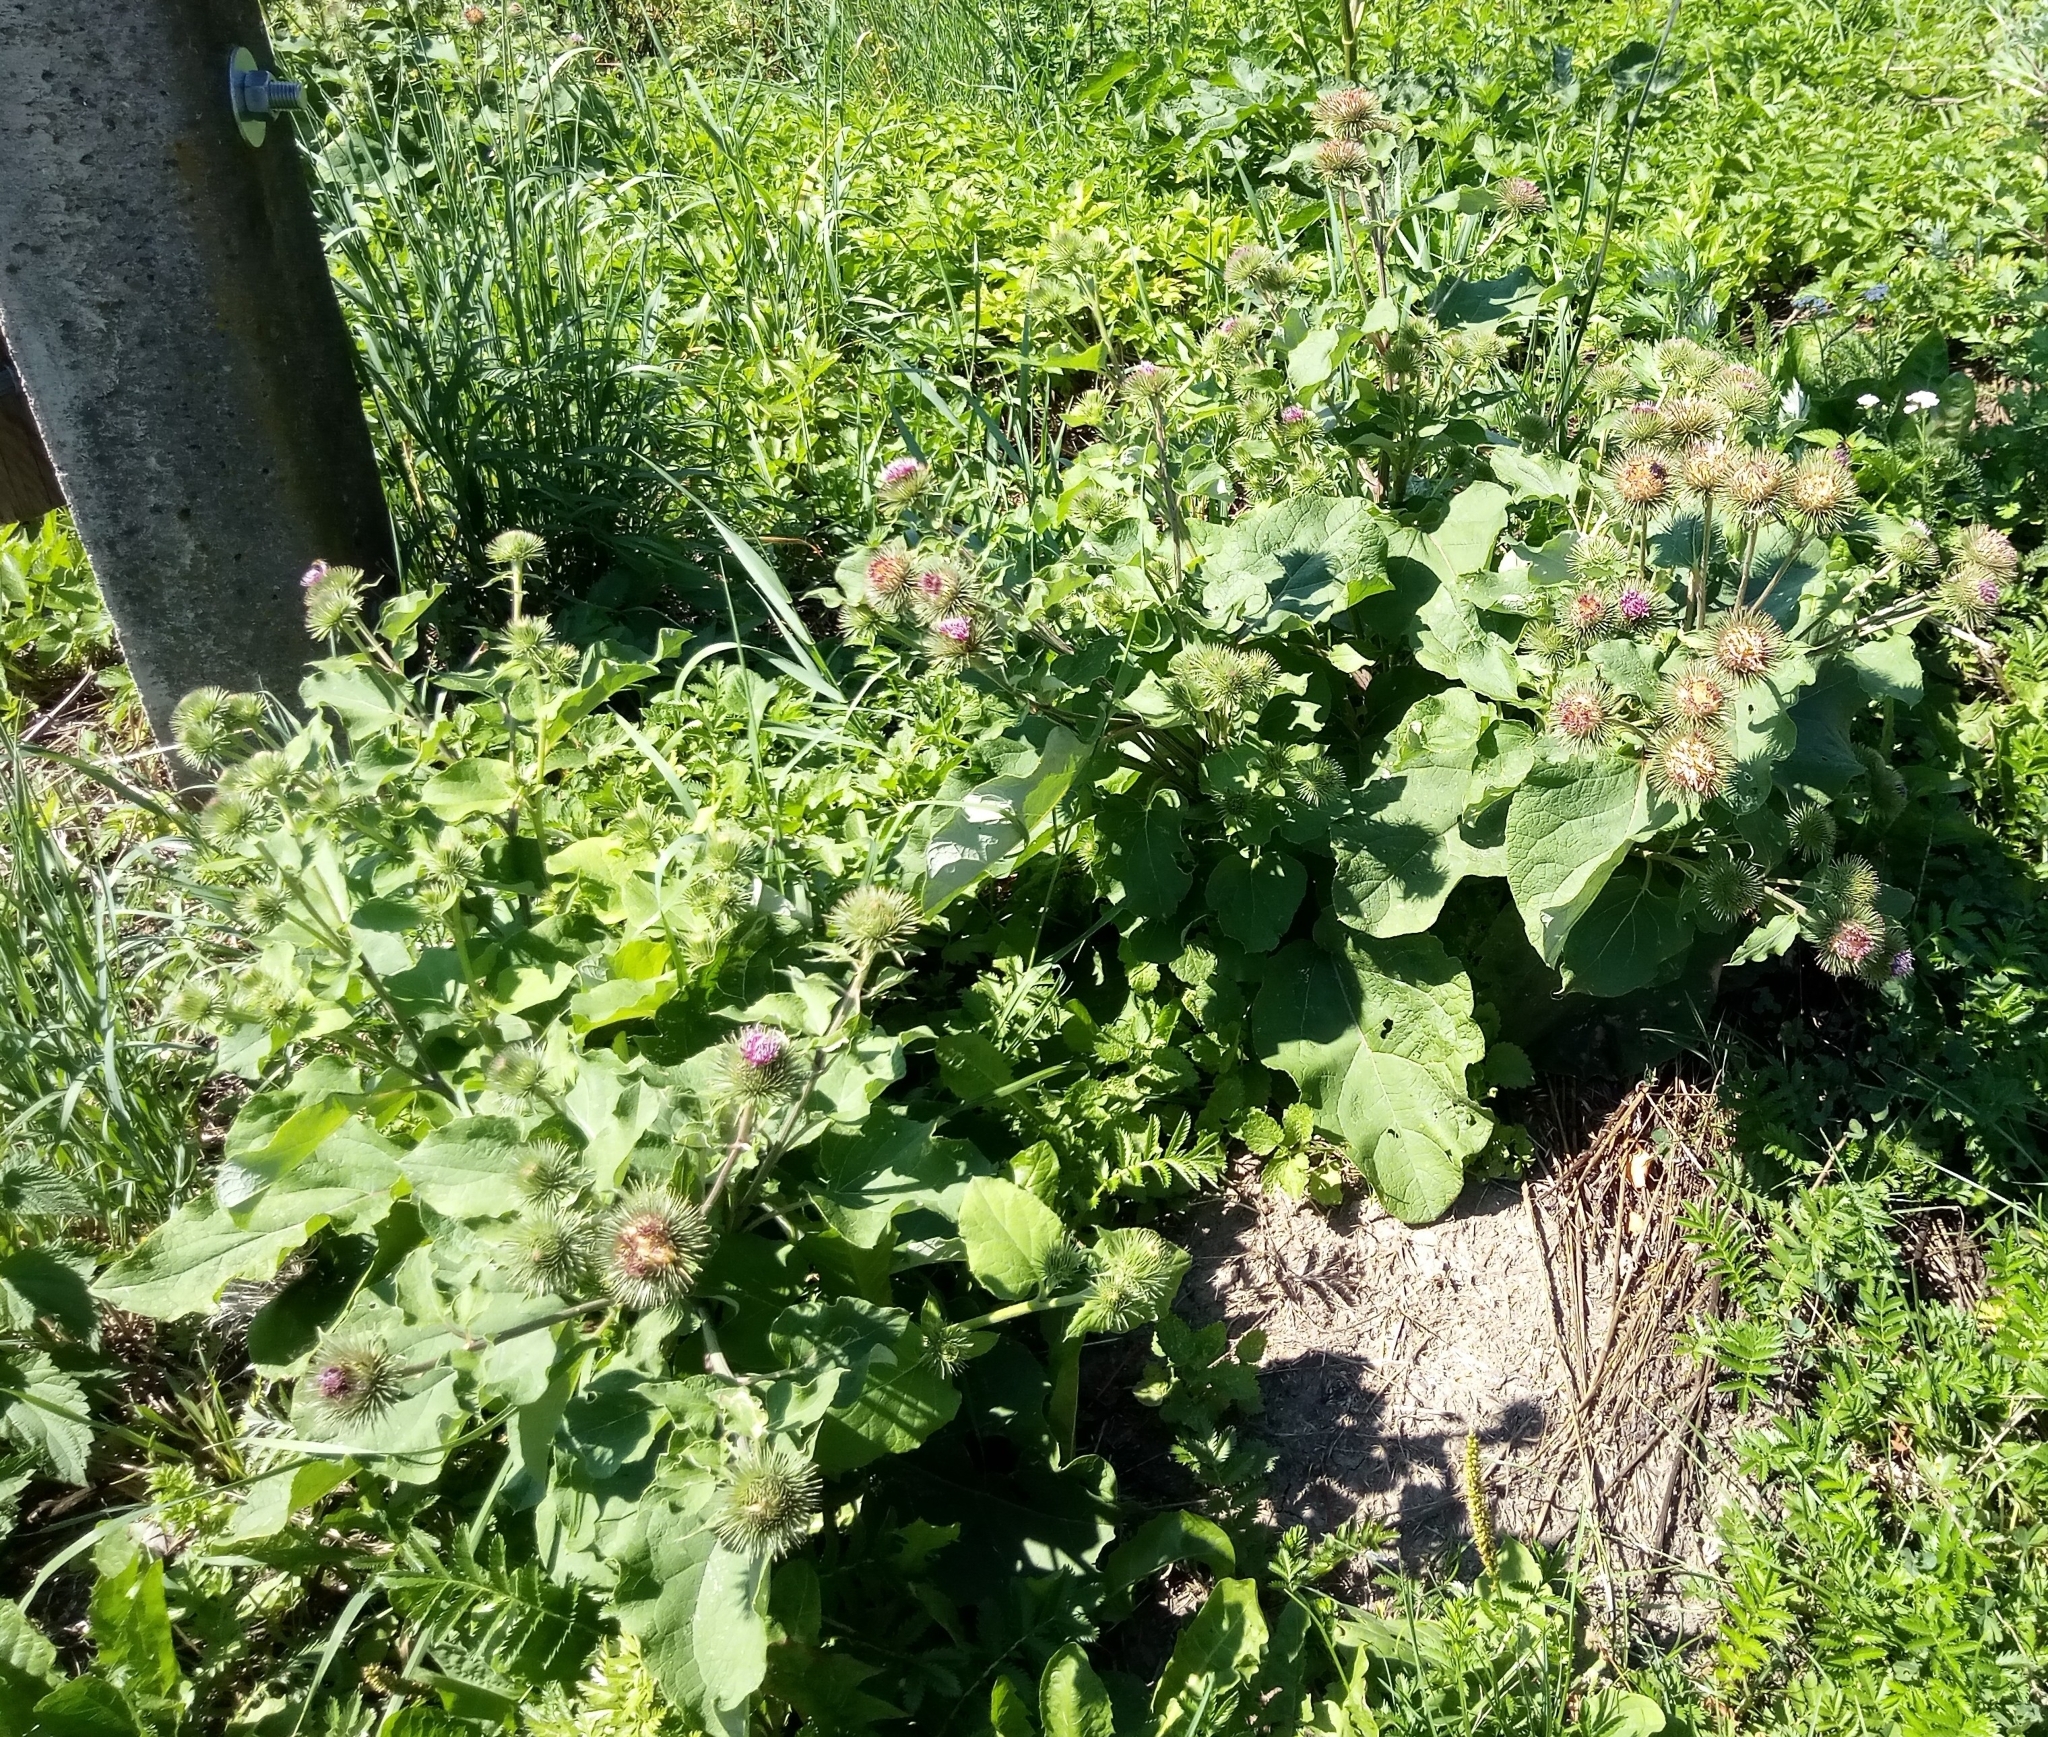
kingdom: Plantae
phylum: Tracheophyta
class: Magnoliopsida
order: Asterales
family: Asteraceae
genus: Arctium
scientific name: Arctium lappa
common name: Greater burdock
